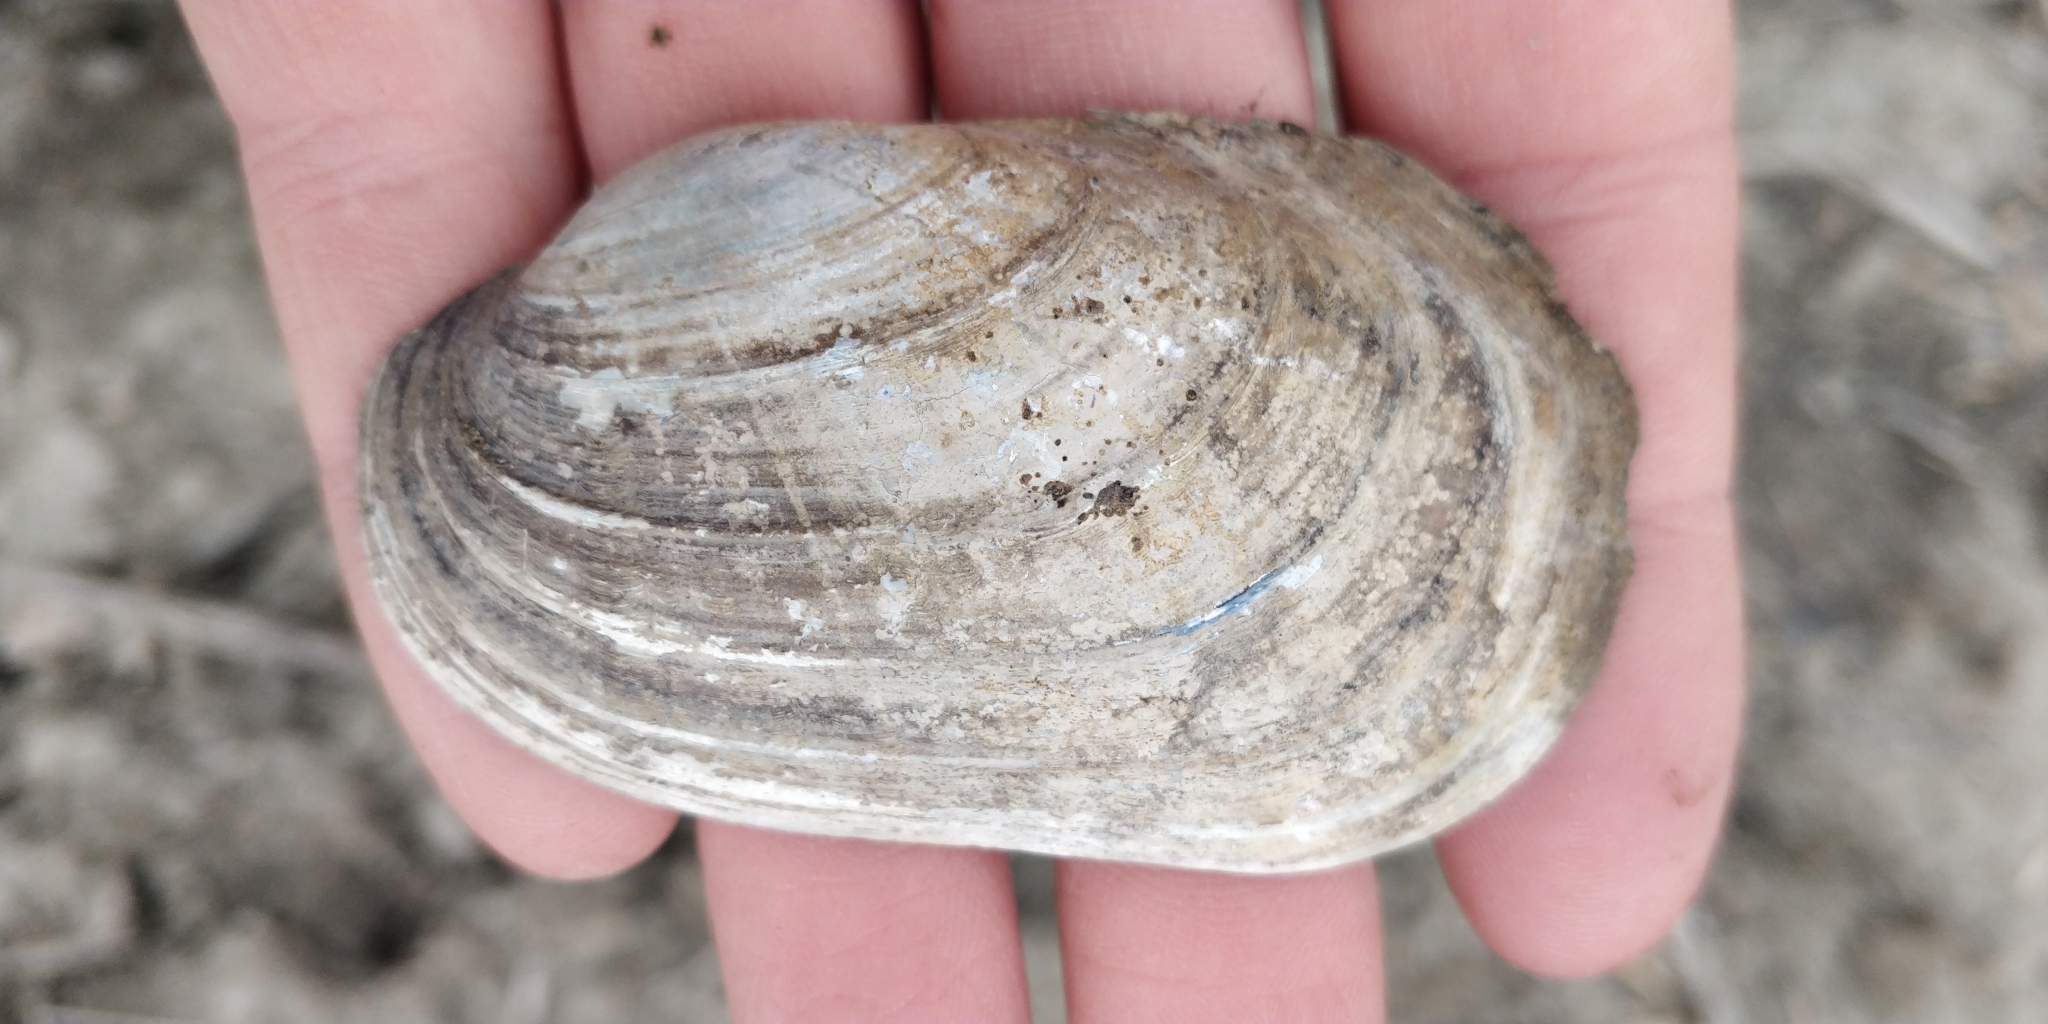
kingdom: Animalia
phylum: Mollusca
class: Bivalvia
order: Unionida
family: Unionidae
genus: Lampsilis
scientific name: Lampsilis siliquoidea
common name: Fatmucket
